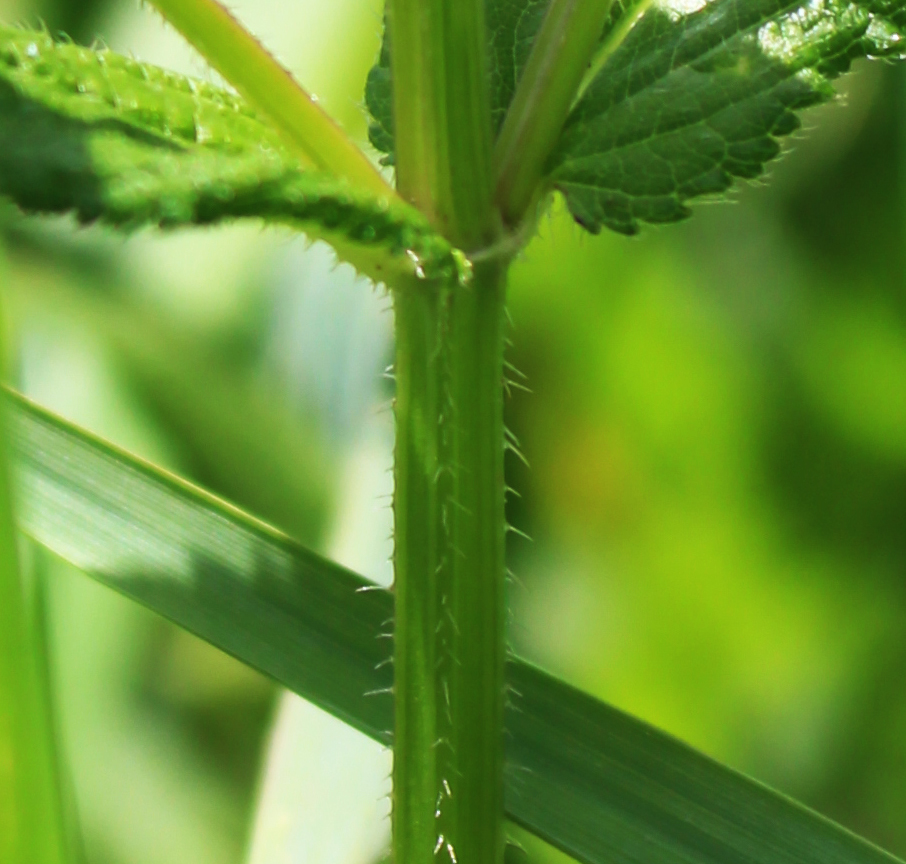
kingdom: Plantae
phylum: Tracheophyta
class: Magnoliopsida
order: Lamiales
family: Lamiaceae
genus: Stachys
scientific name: Stachys hispida
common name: Hispid hedge-nettle
